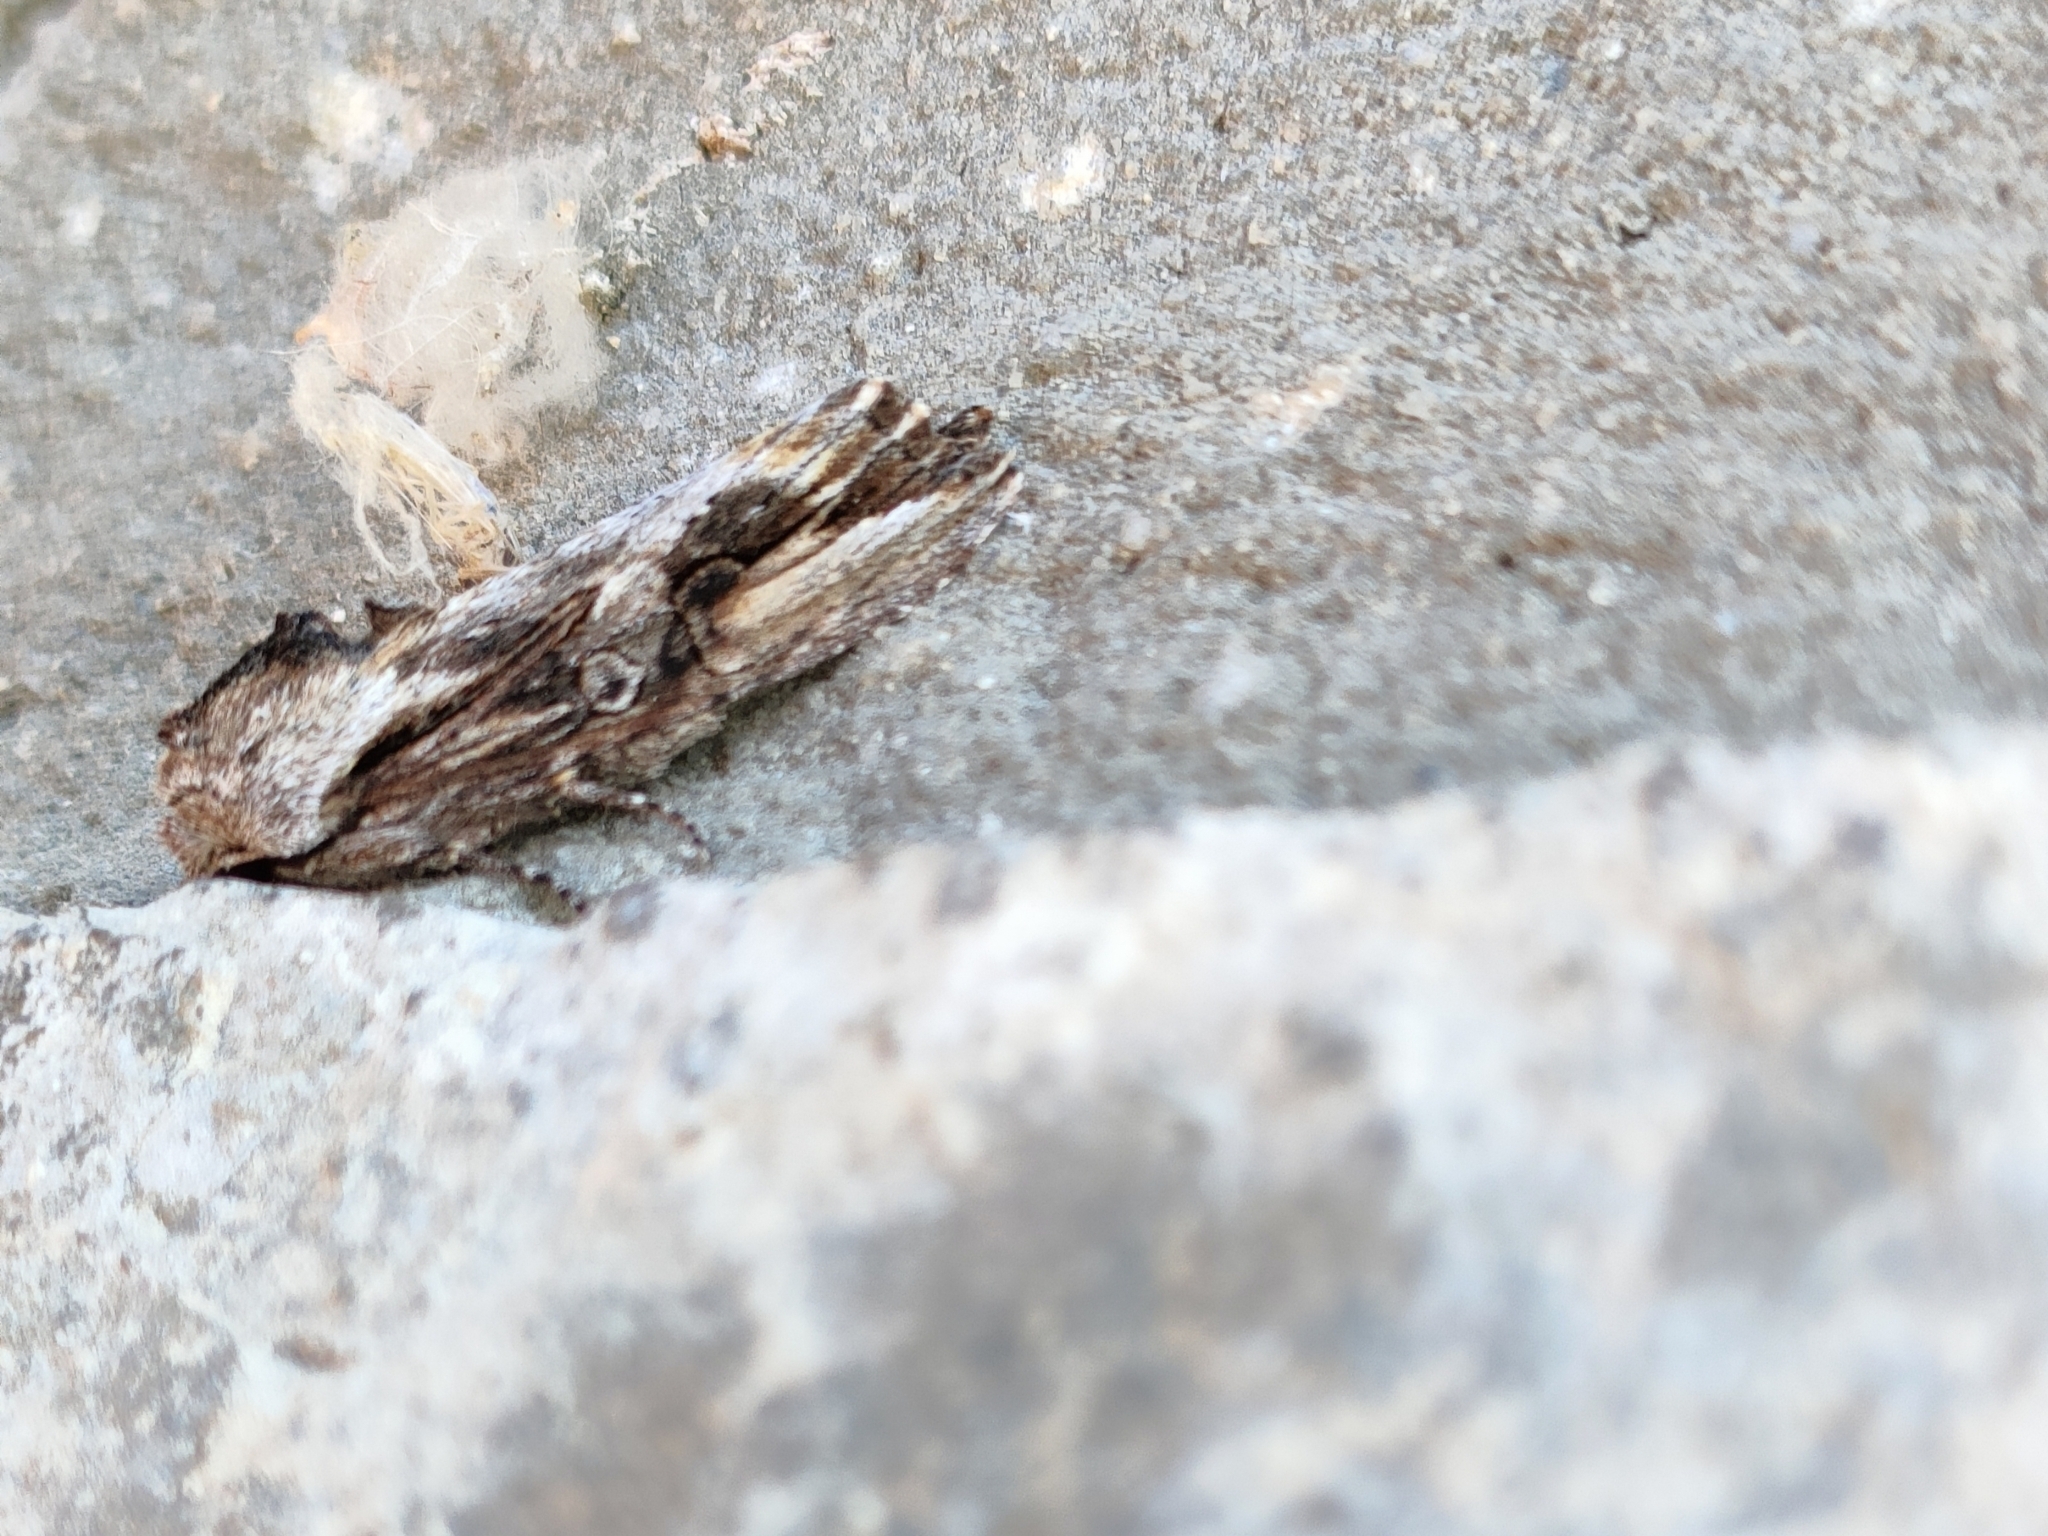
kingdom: Animalia
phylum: Arthropoda
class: Insecta
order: Lepidoptera
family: Noctuidae
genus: Egira
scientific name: Egira conspicillaris
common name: Silver cloud
